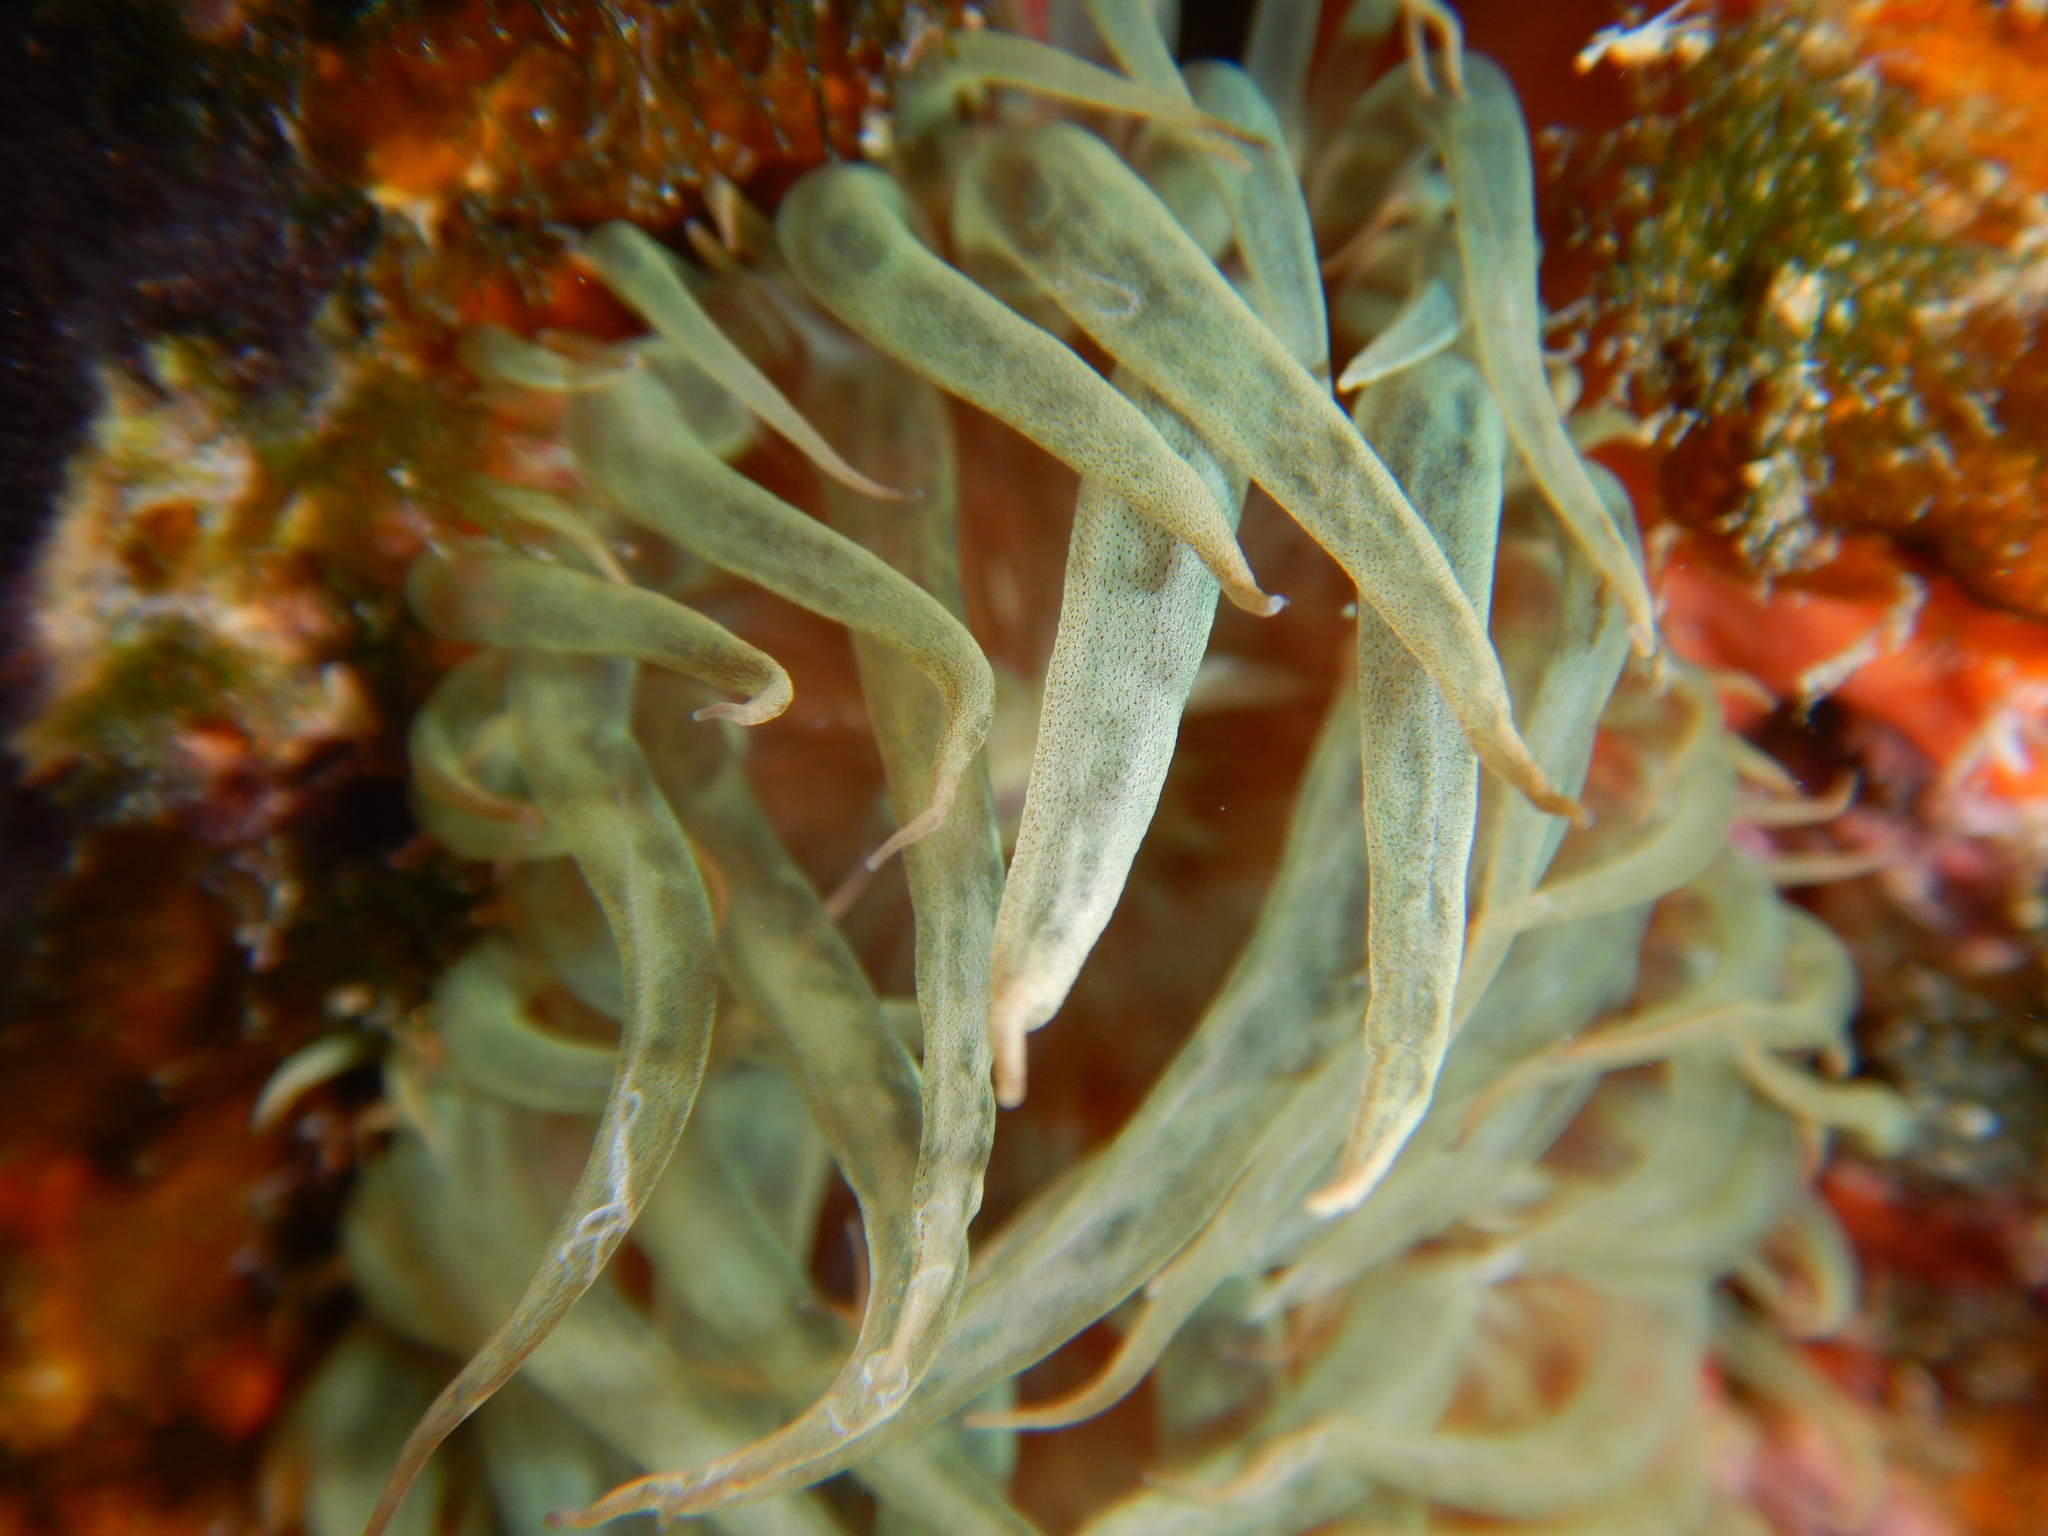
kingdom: Animalia
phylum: Cnidaria
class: Anthozoa
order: Actiniaria
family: Aiptasiidae
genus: Aiptasia
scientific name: Aiptasia mutabilis
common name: Trumpet anemone
